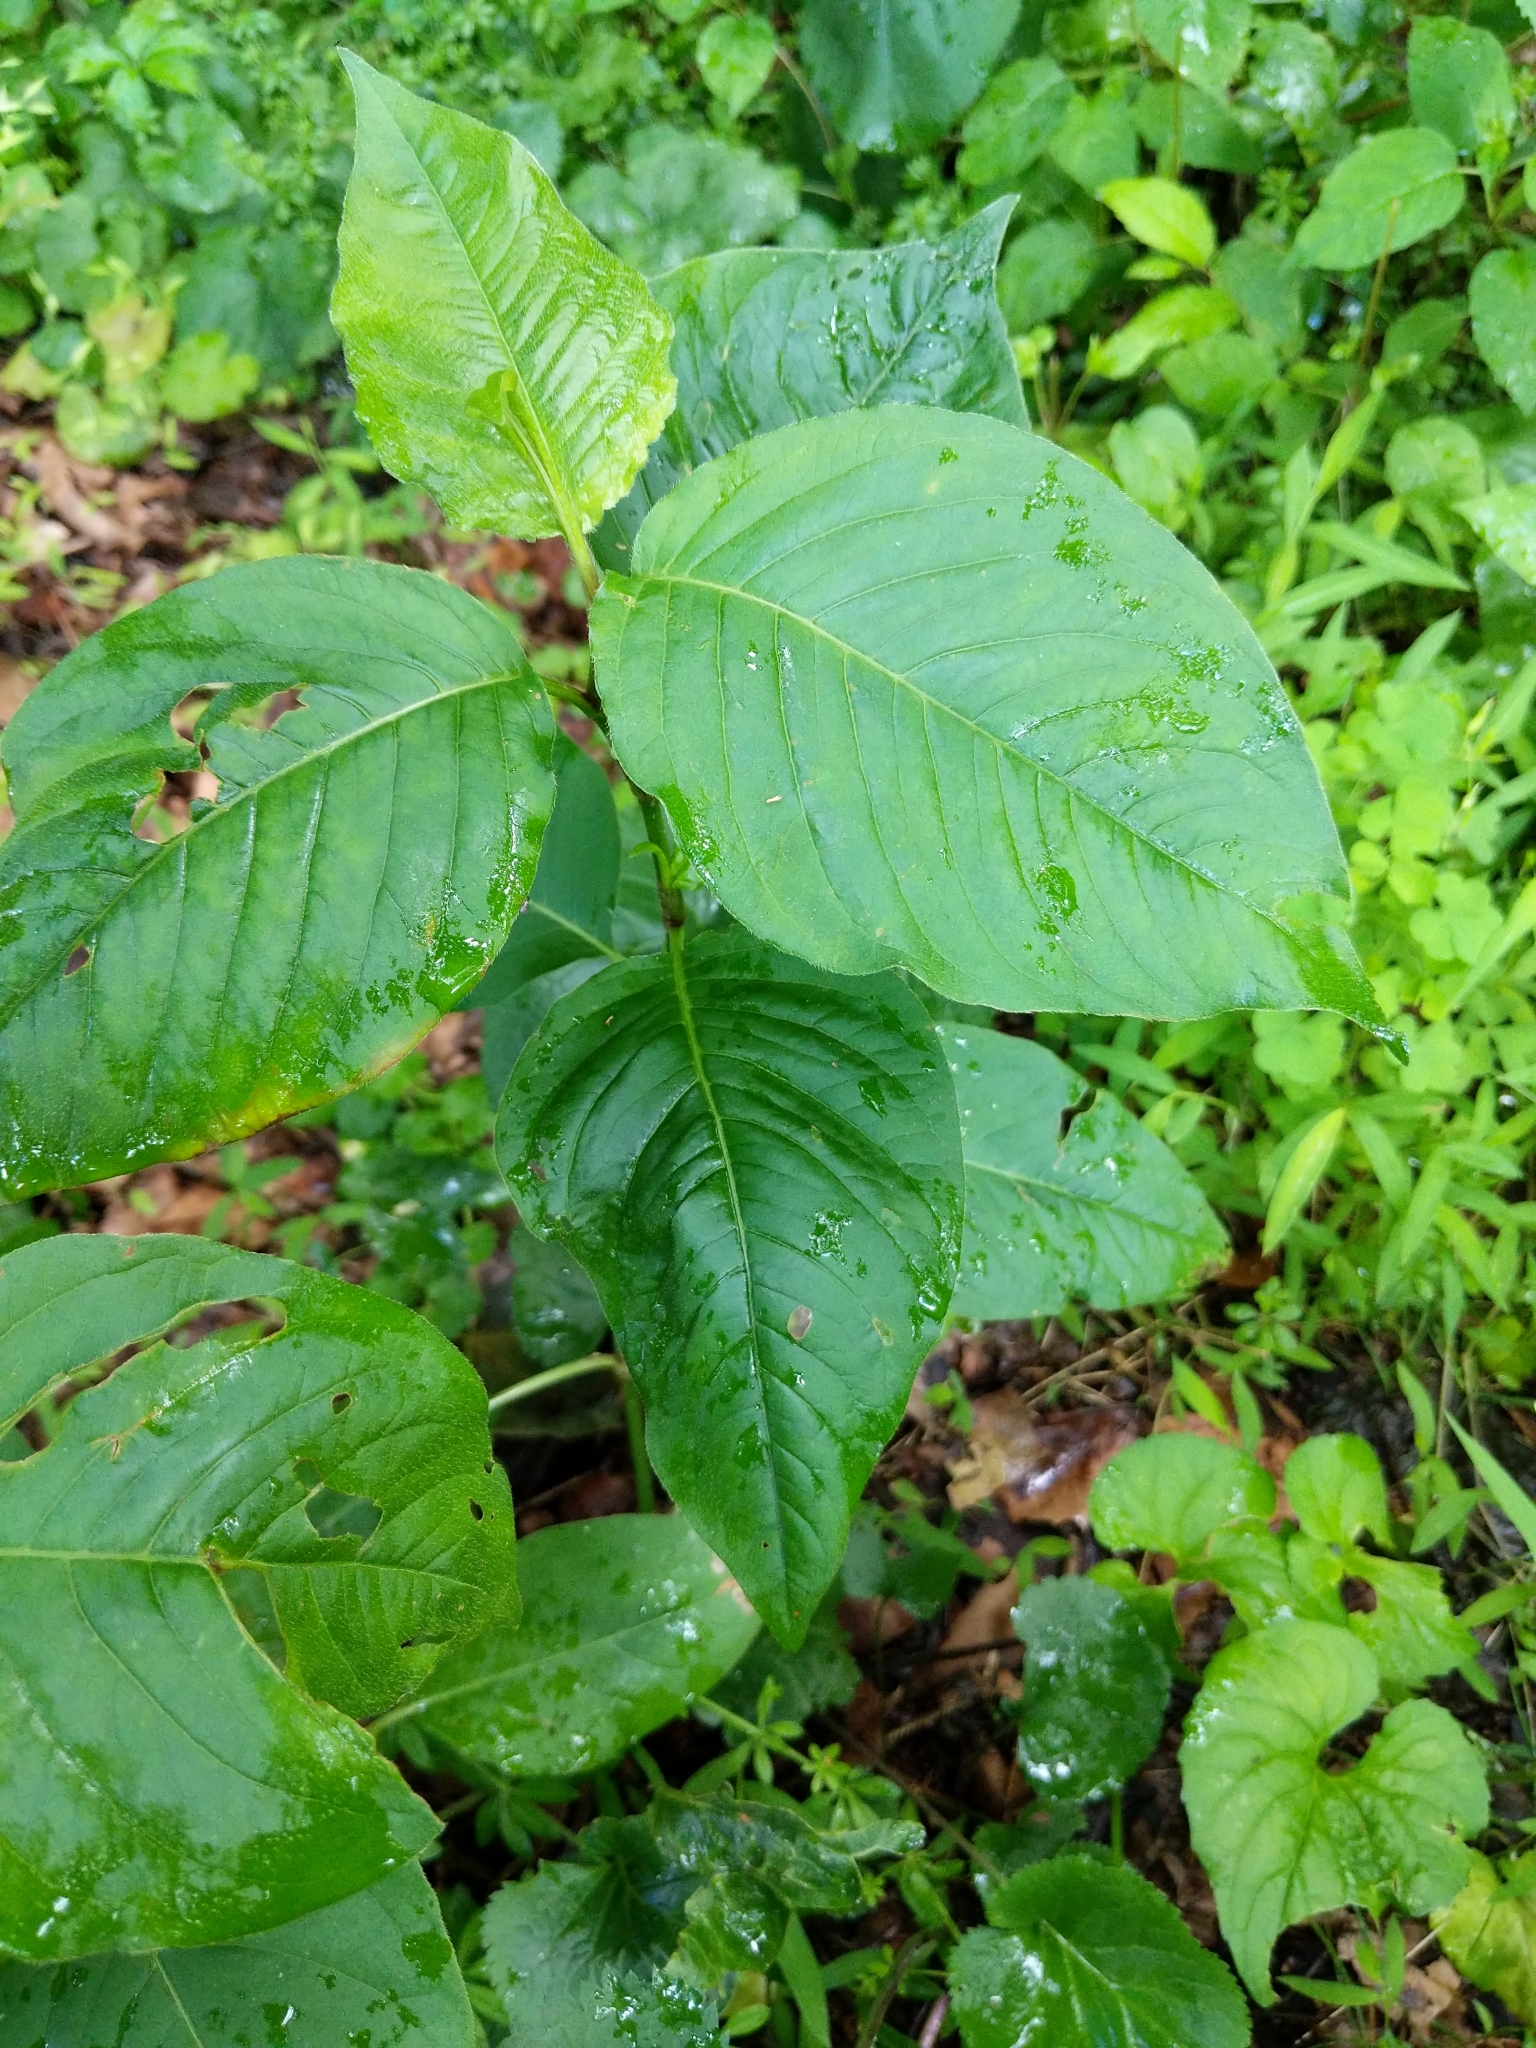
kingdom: Plantae
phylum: Tracheophyta
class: Magnoliopsida
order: Caryophyllales
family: Polygonaceae
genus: Persicaria
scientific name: Persicaria virginiana
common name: Jumpseed
